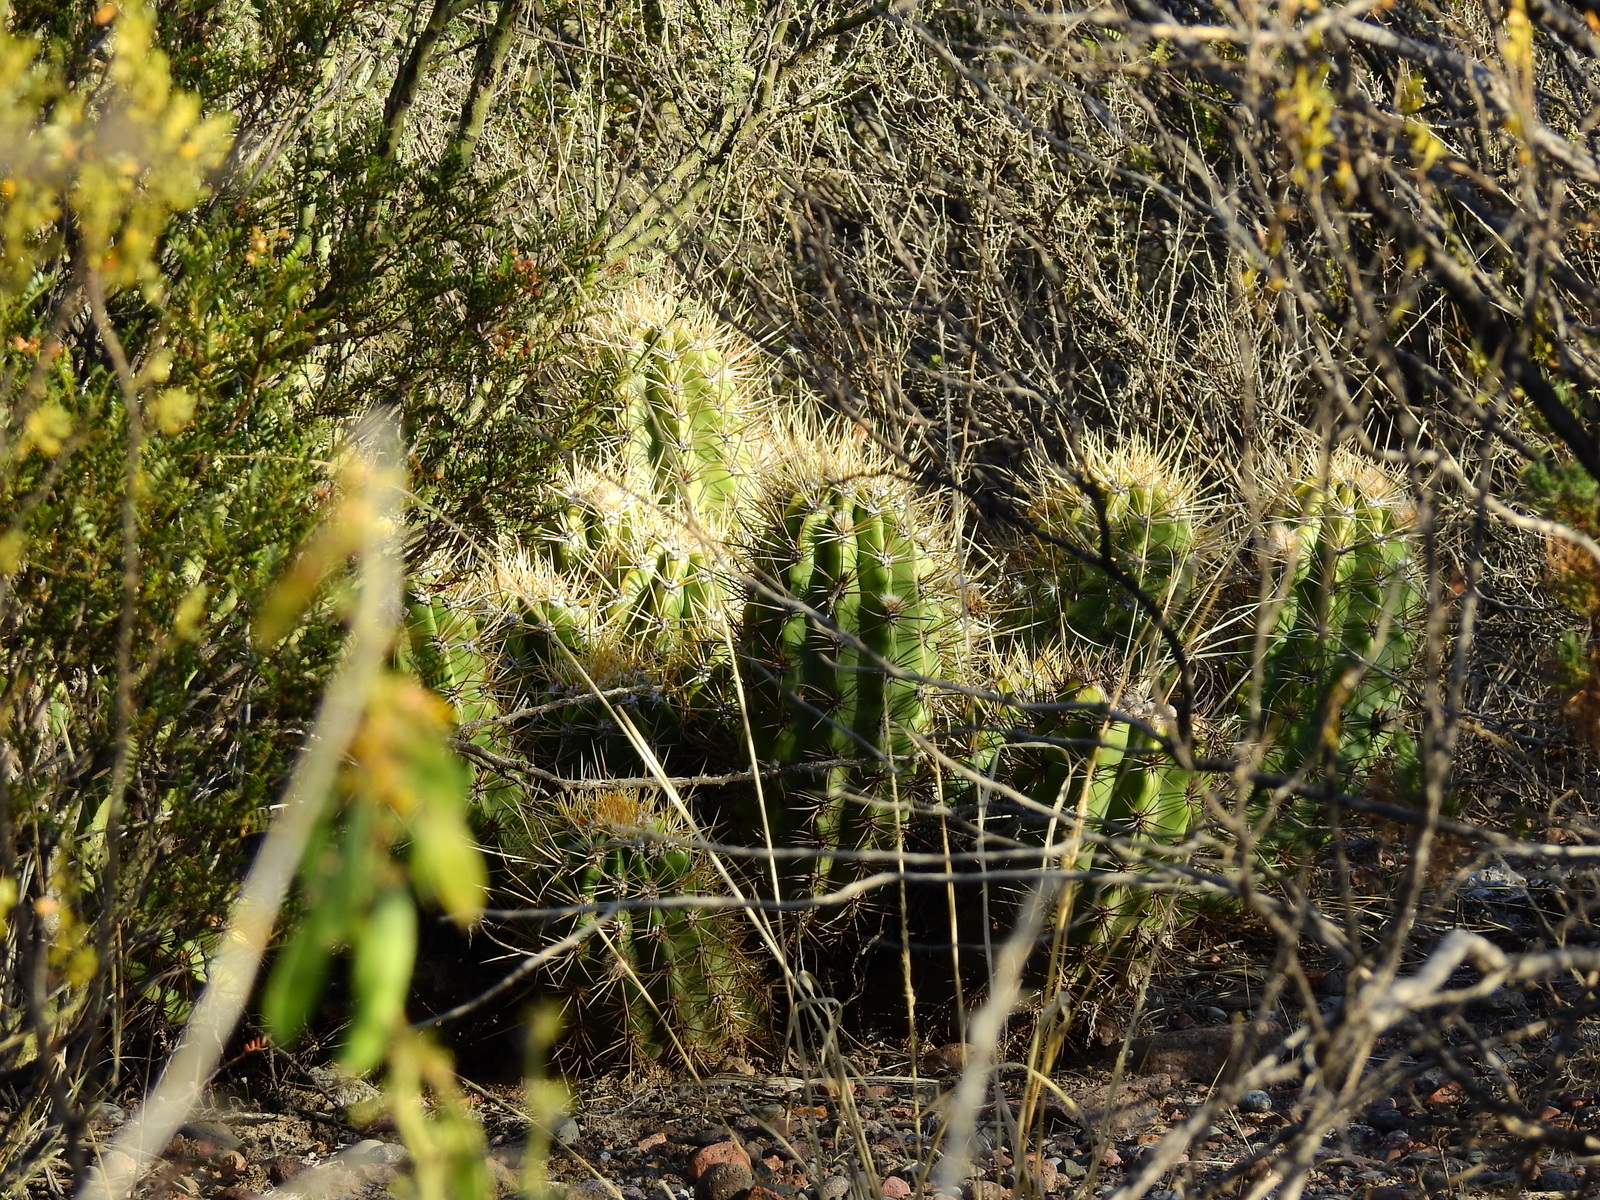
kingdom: Plantae
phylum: Tracheophyta
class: Magnoliopsida
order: Caryophyllales
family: Cactaceae
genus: Soehrensia
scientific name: Soehrensia candicans
